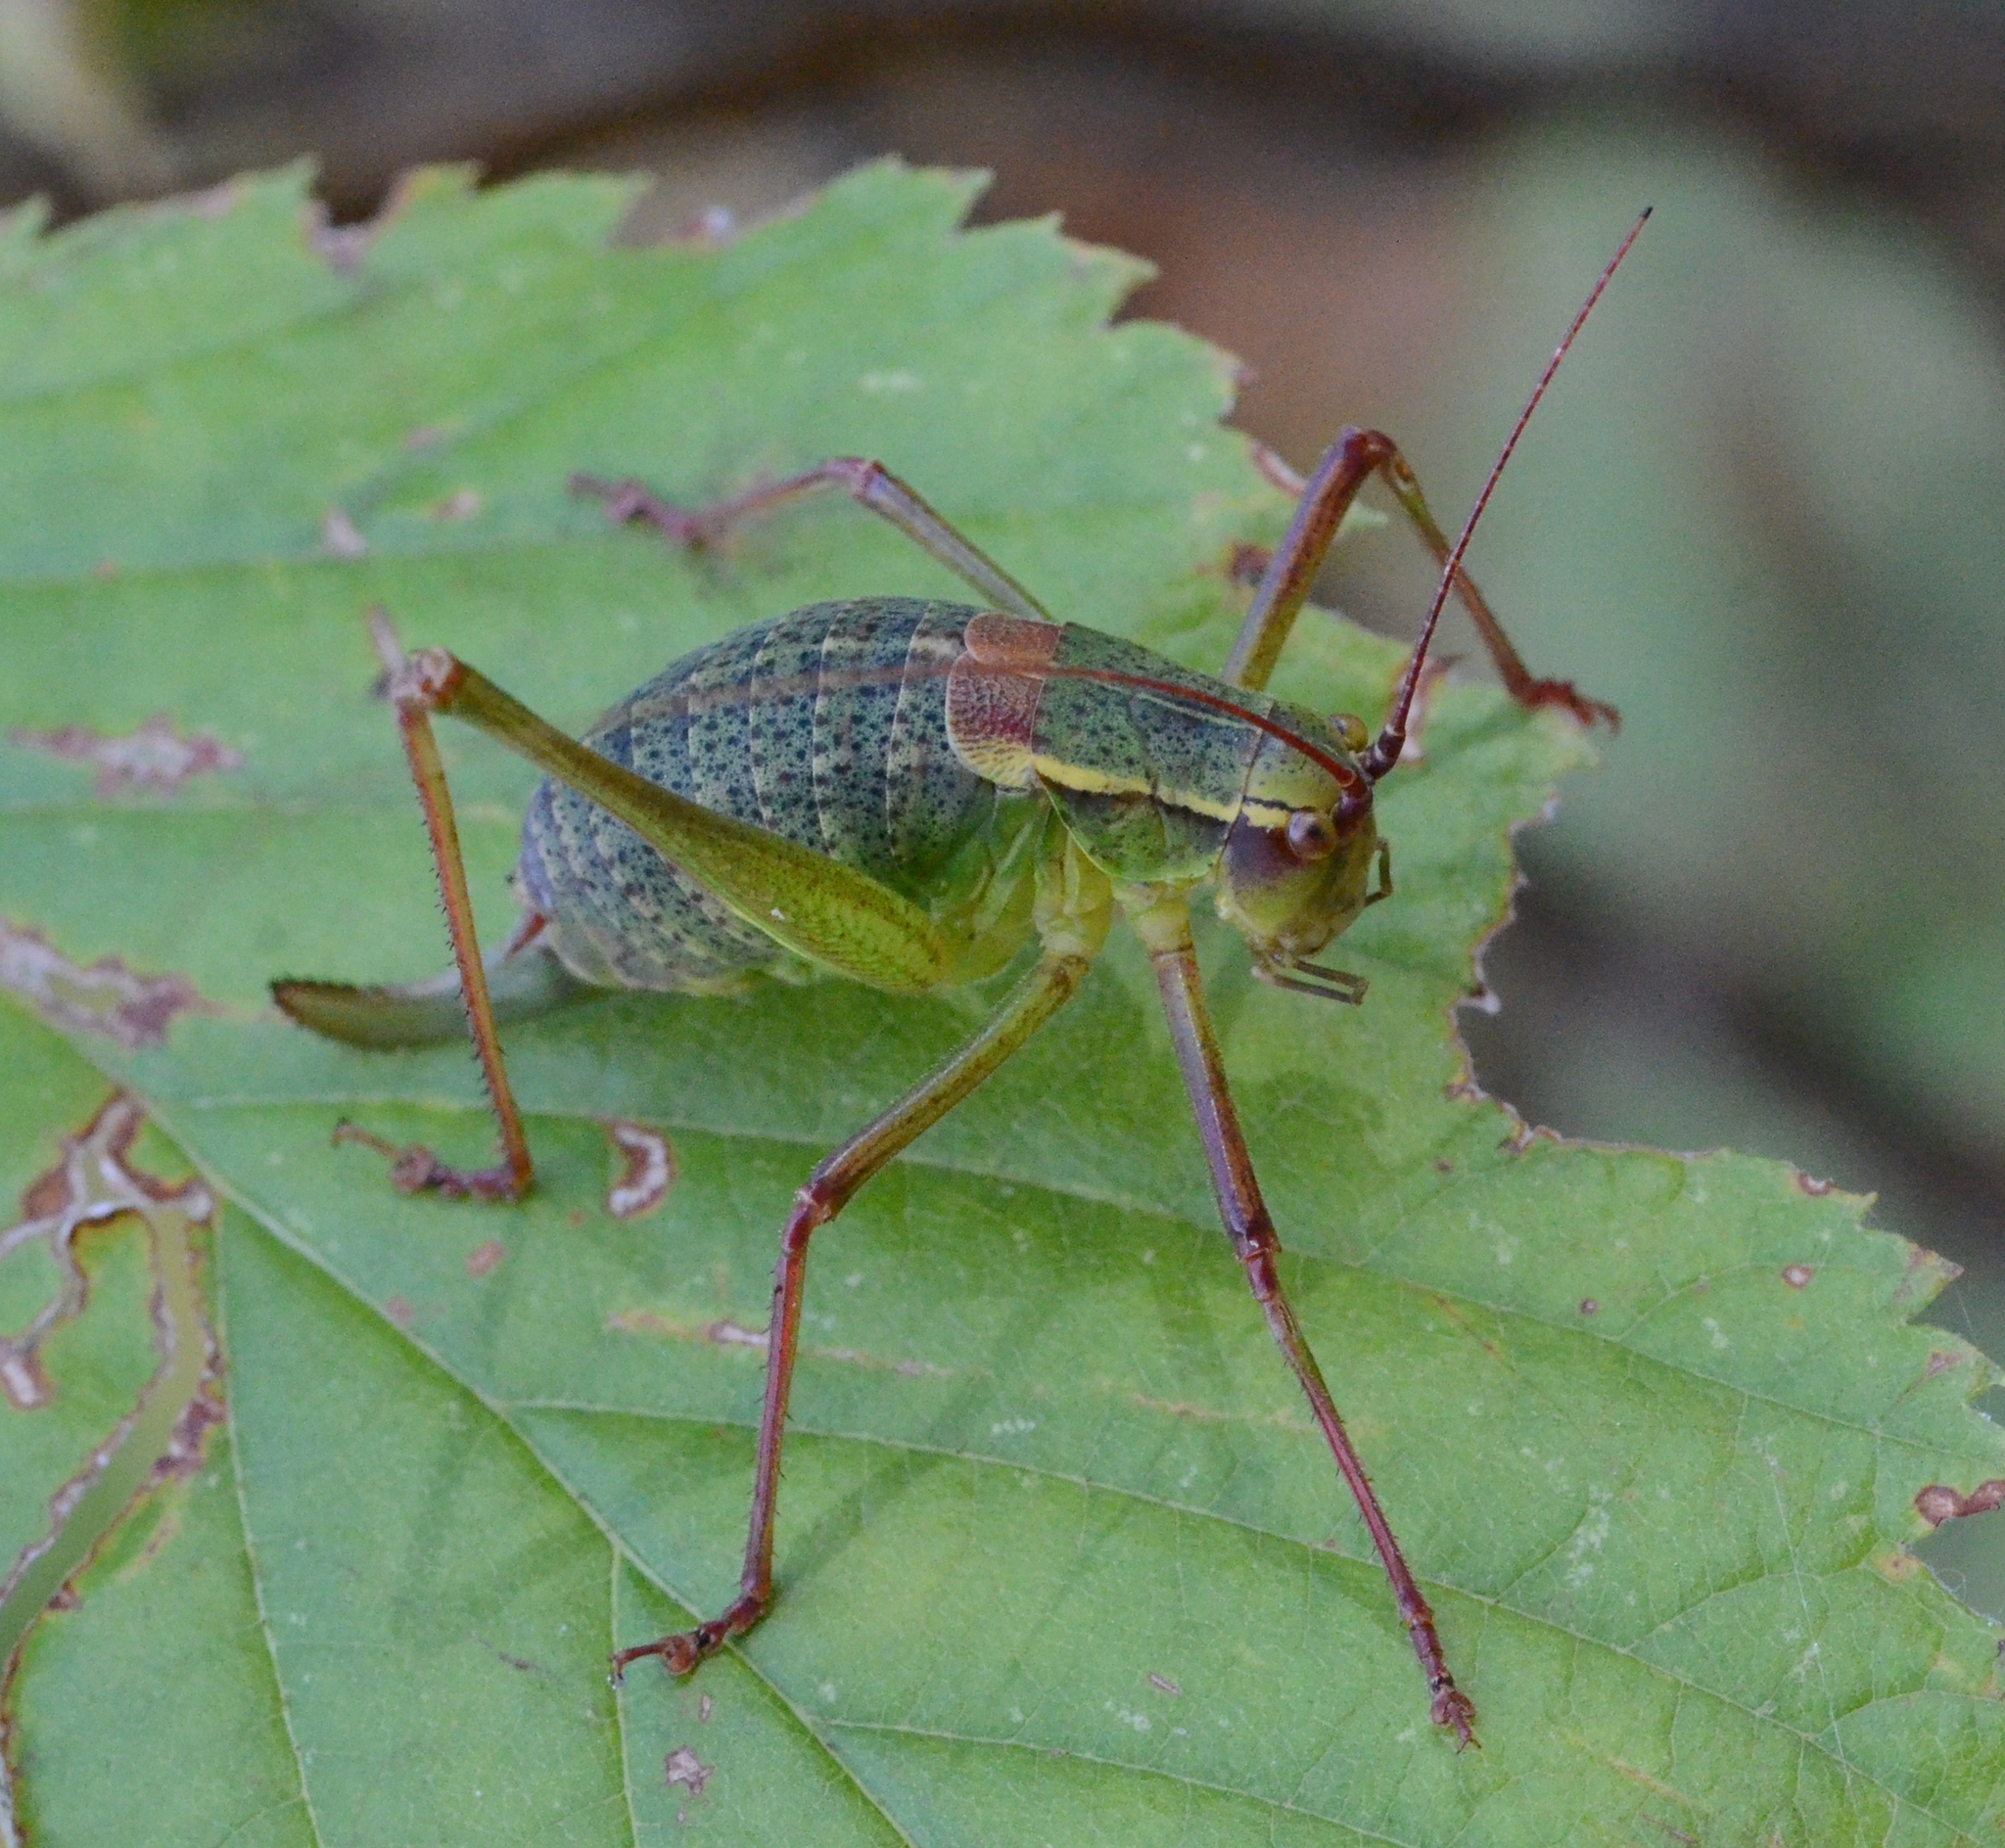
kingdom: Animalia
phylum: Arthropoda
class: Insecta
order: Orthoptera
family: Tettigoniidae
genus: Barbitistes
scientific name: Barbitistes serricauda
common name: Saw-tailed bush-cricket
